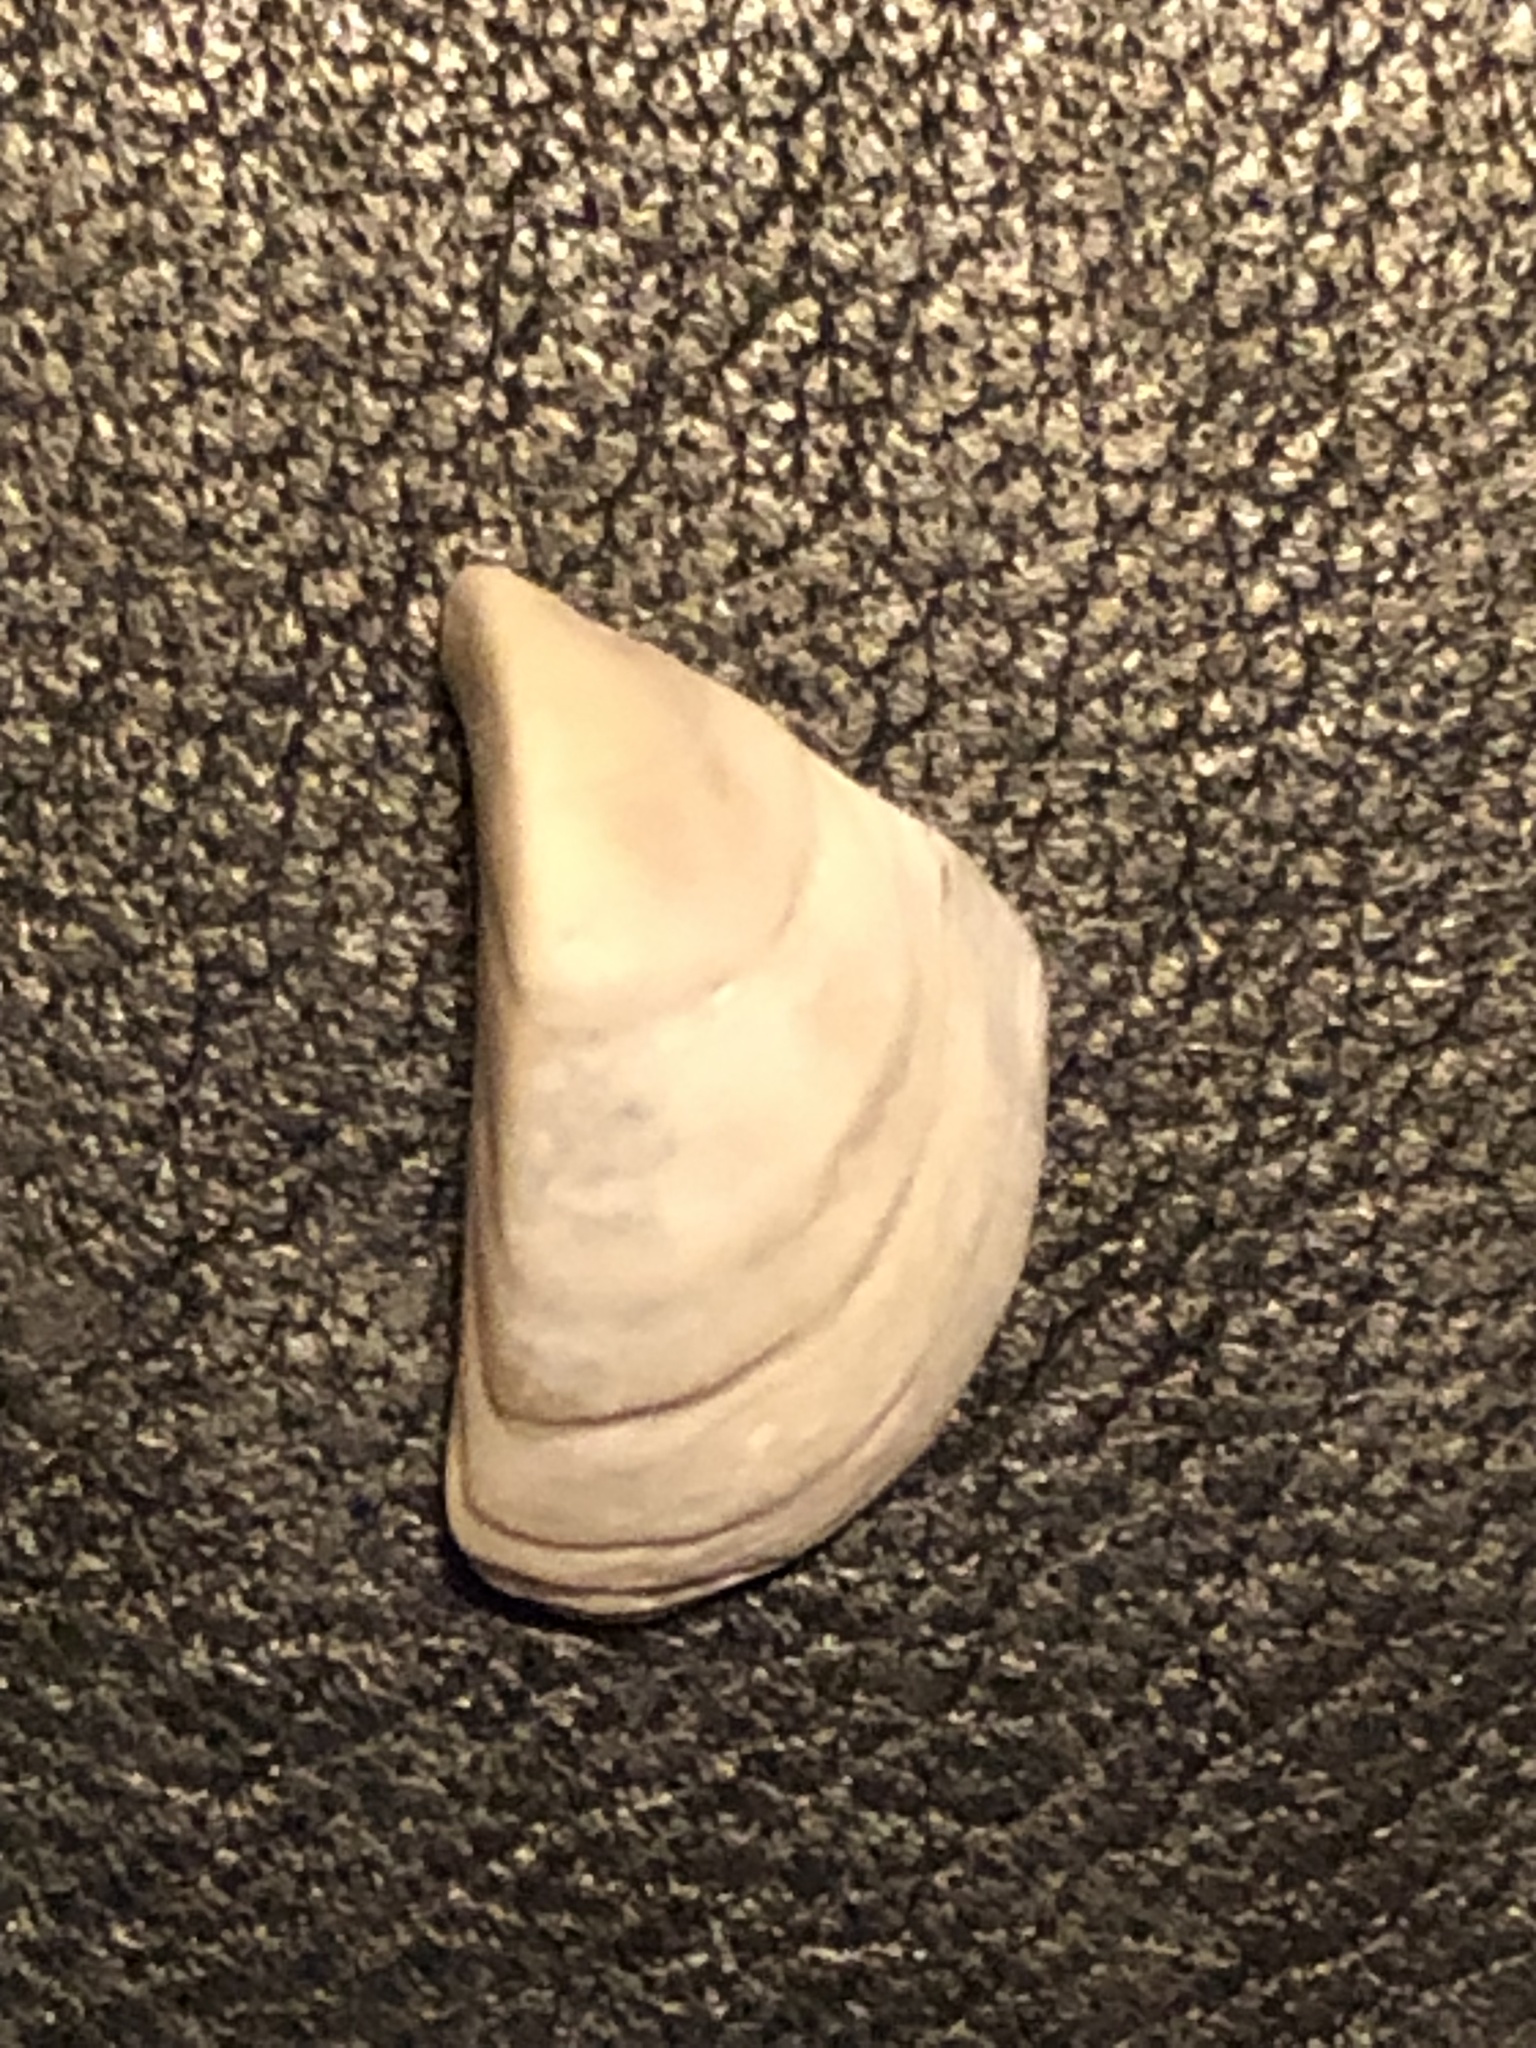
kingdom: Animalia
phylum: Mollusca
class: Bivalvia
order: Myida
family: Dreissenidae
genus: Dreissena
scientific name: Dreissena polymorpha
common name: Zebra mussel
